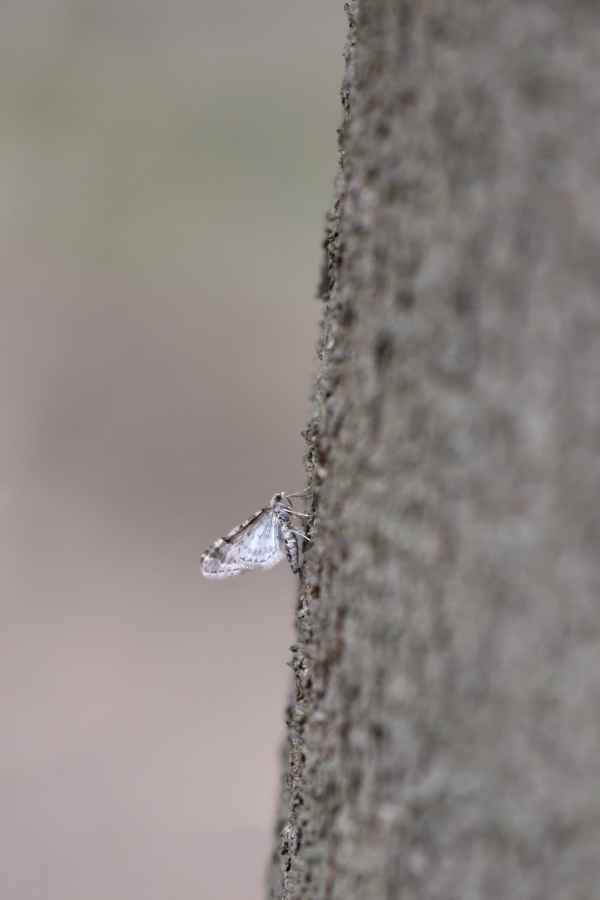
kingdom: Animalia
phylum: Arthropoda
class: Insecta
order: Lepidoptera
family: Geometridae
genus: Eupithecia
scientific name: Eupithecia lanceata
